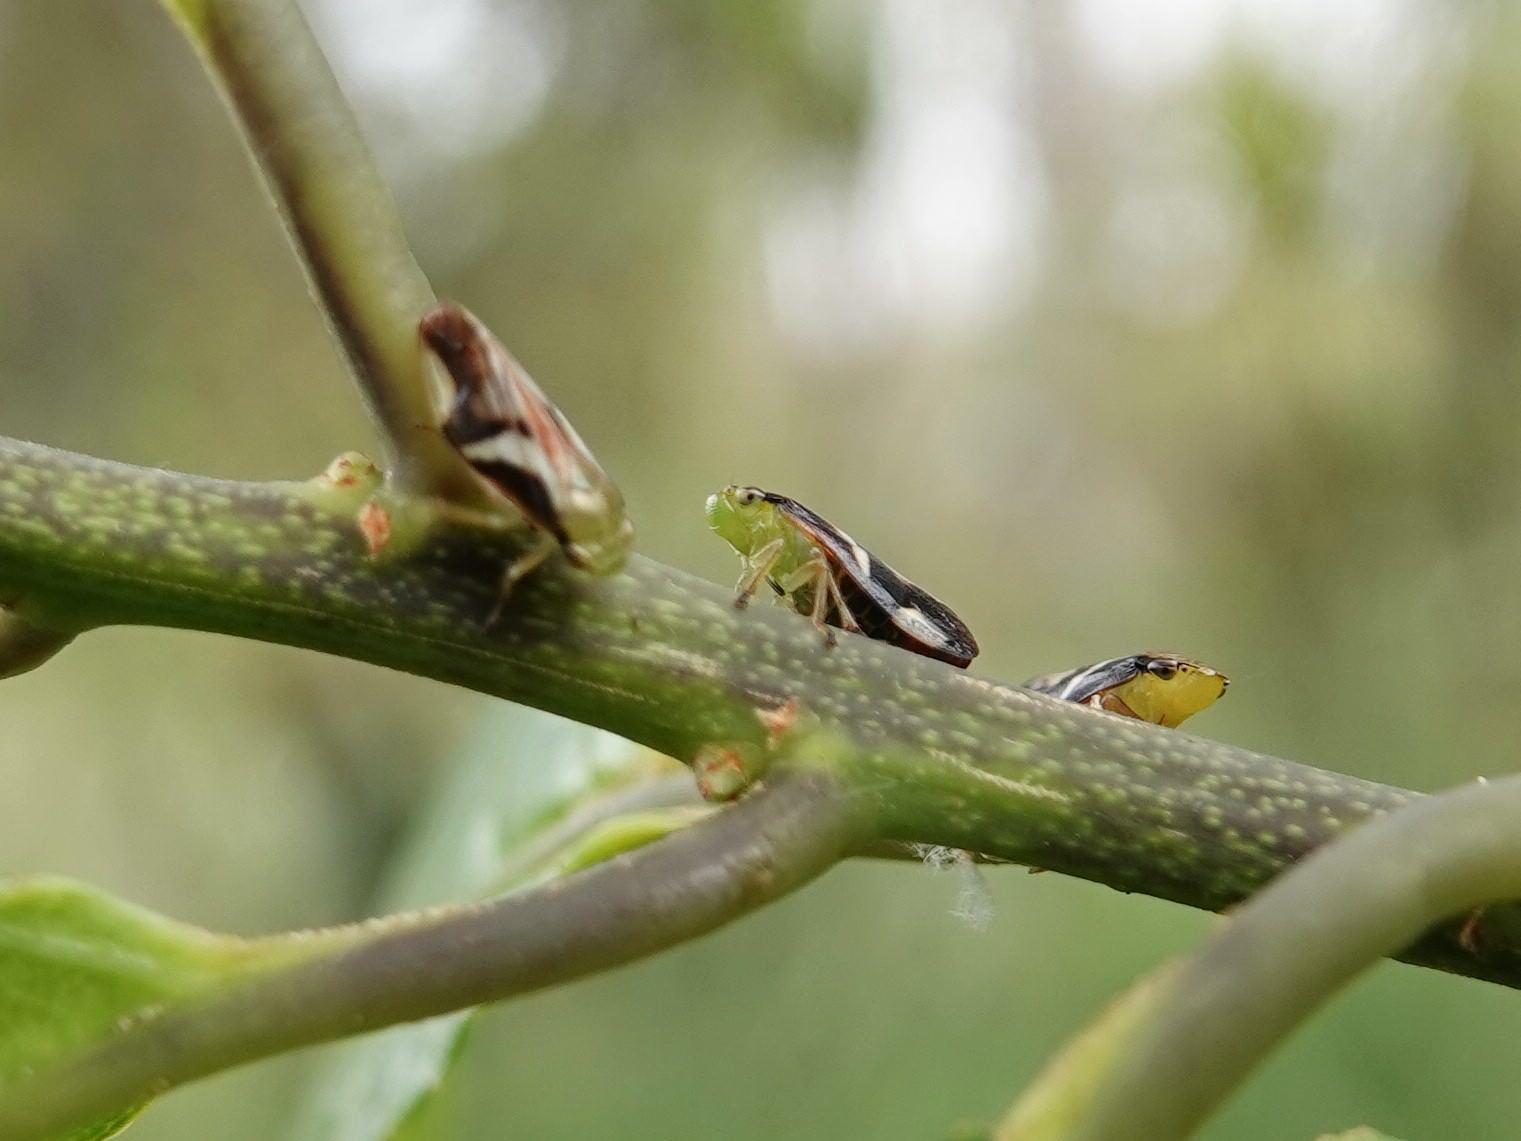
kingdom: Animalia
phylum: Arthropoda
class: Insecta
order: Hemiptera
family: Aphrophoridae
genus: Carystoterpa
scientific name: Carystoterpa fingens
